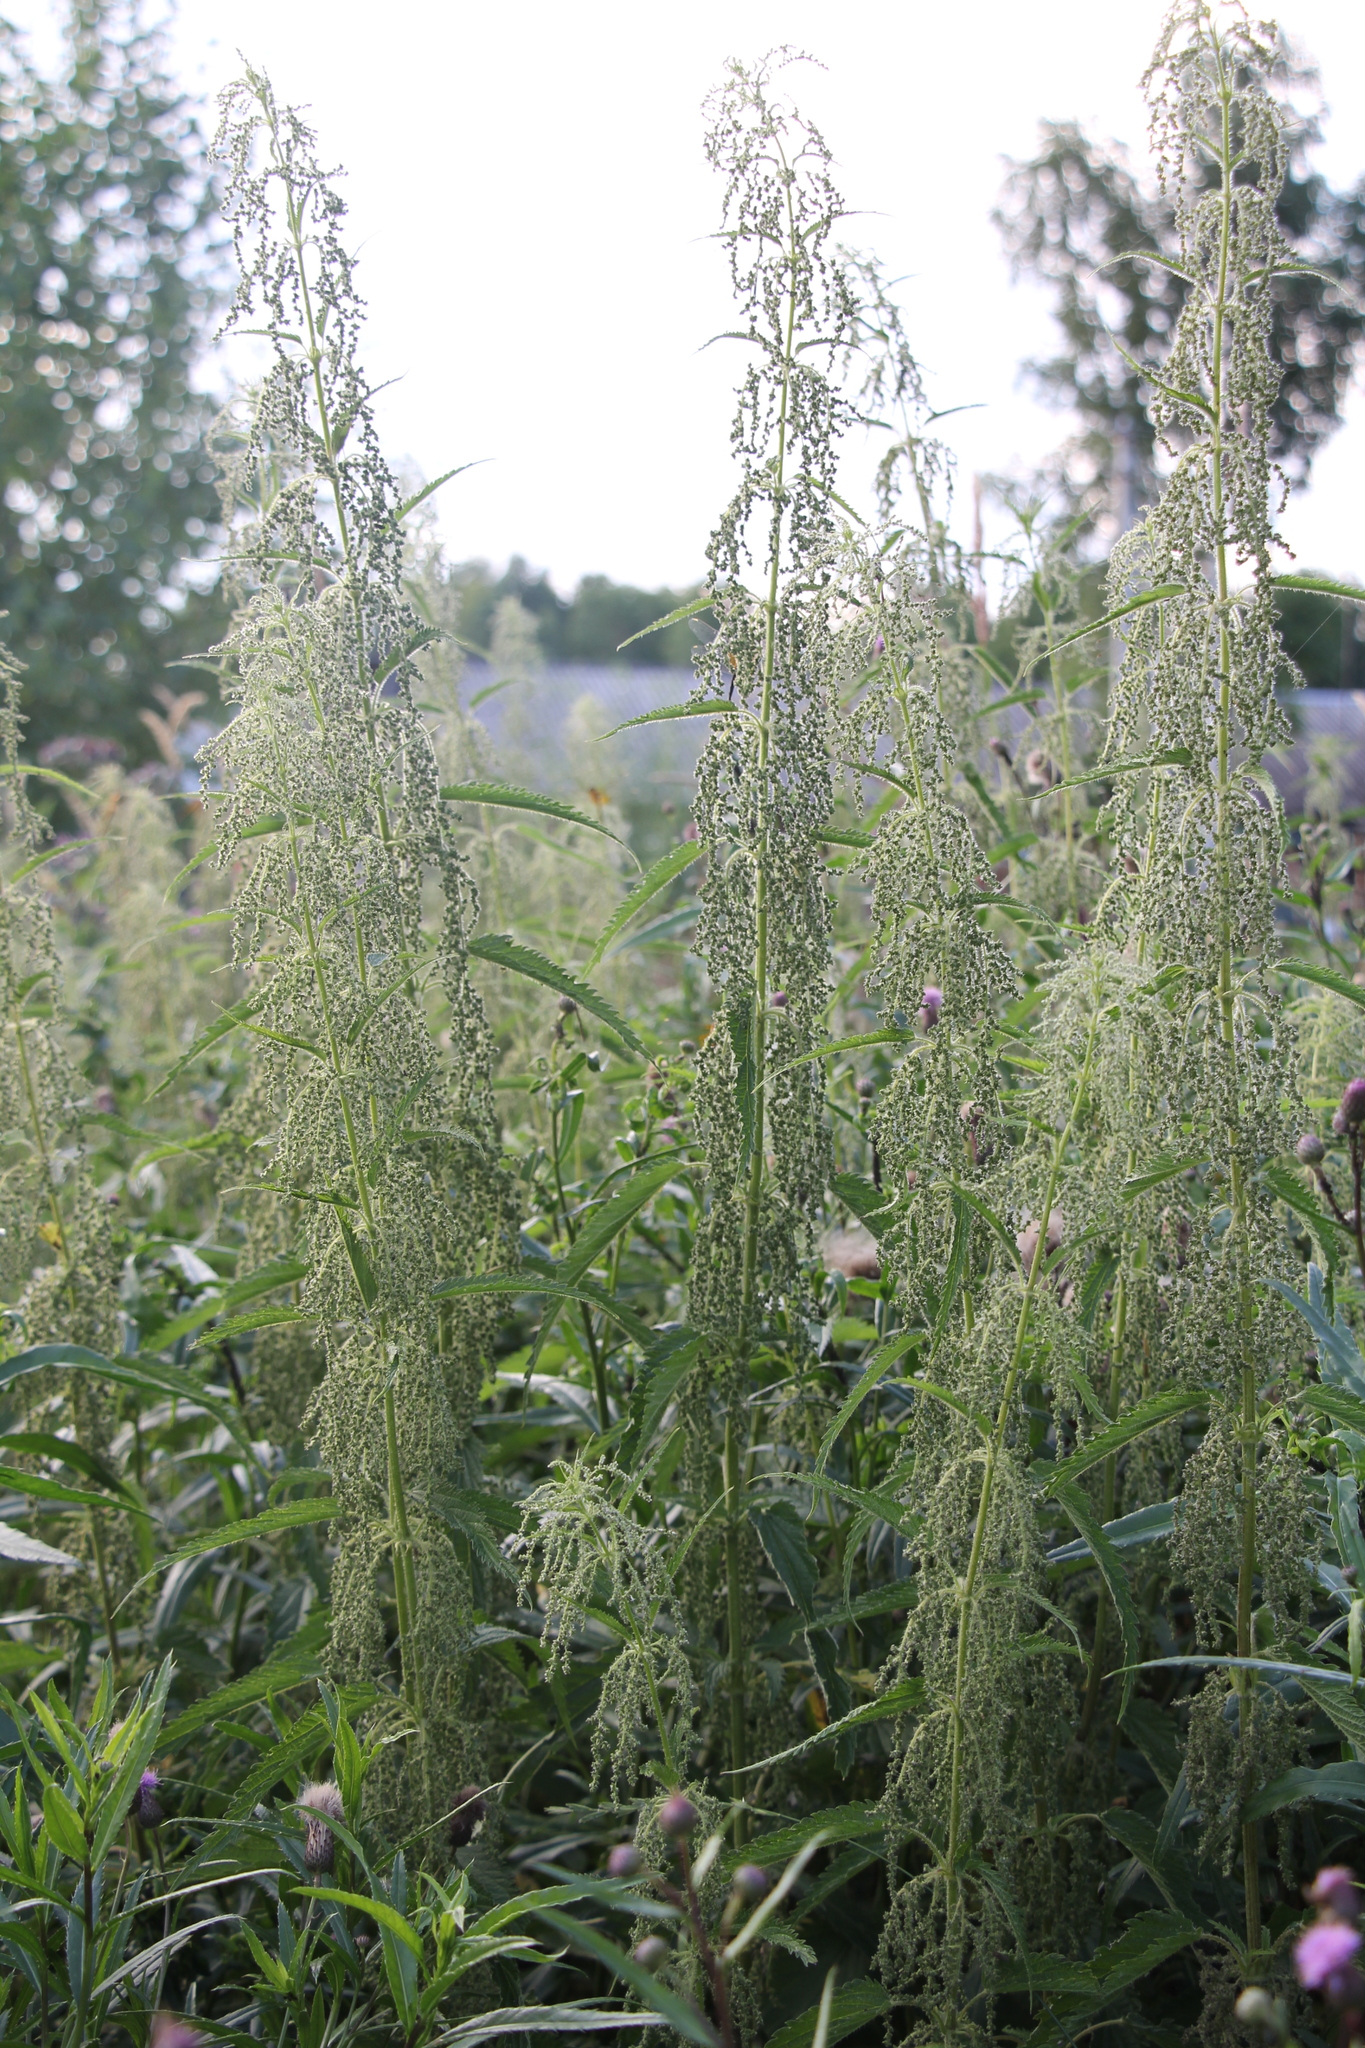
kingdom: Plantae
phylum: Tracheophyta
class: Magnoliopsida
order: Rosales
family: Urticaceae
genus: Urtica
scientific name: Urtica dioica
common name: Common nettle
